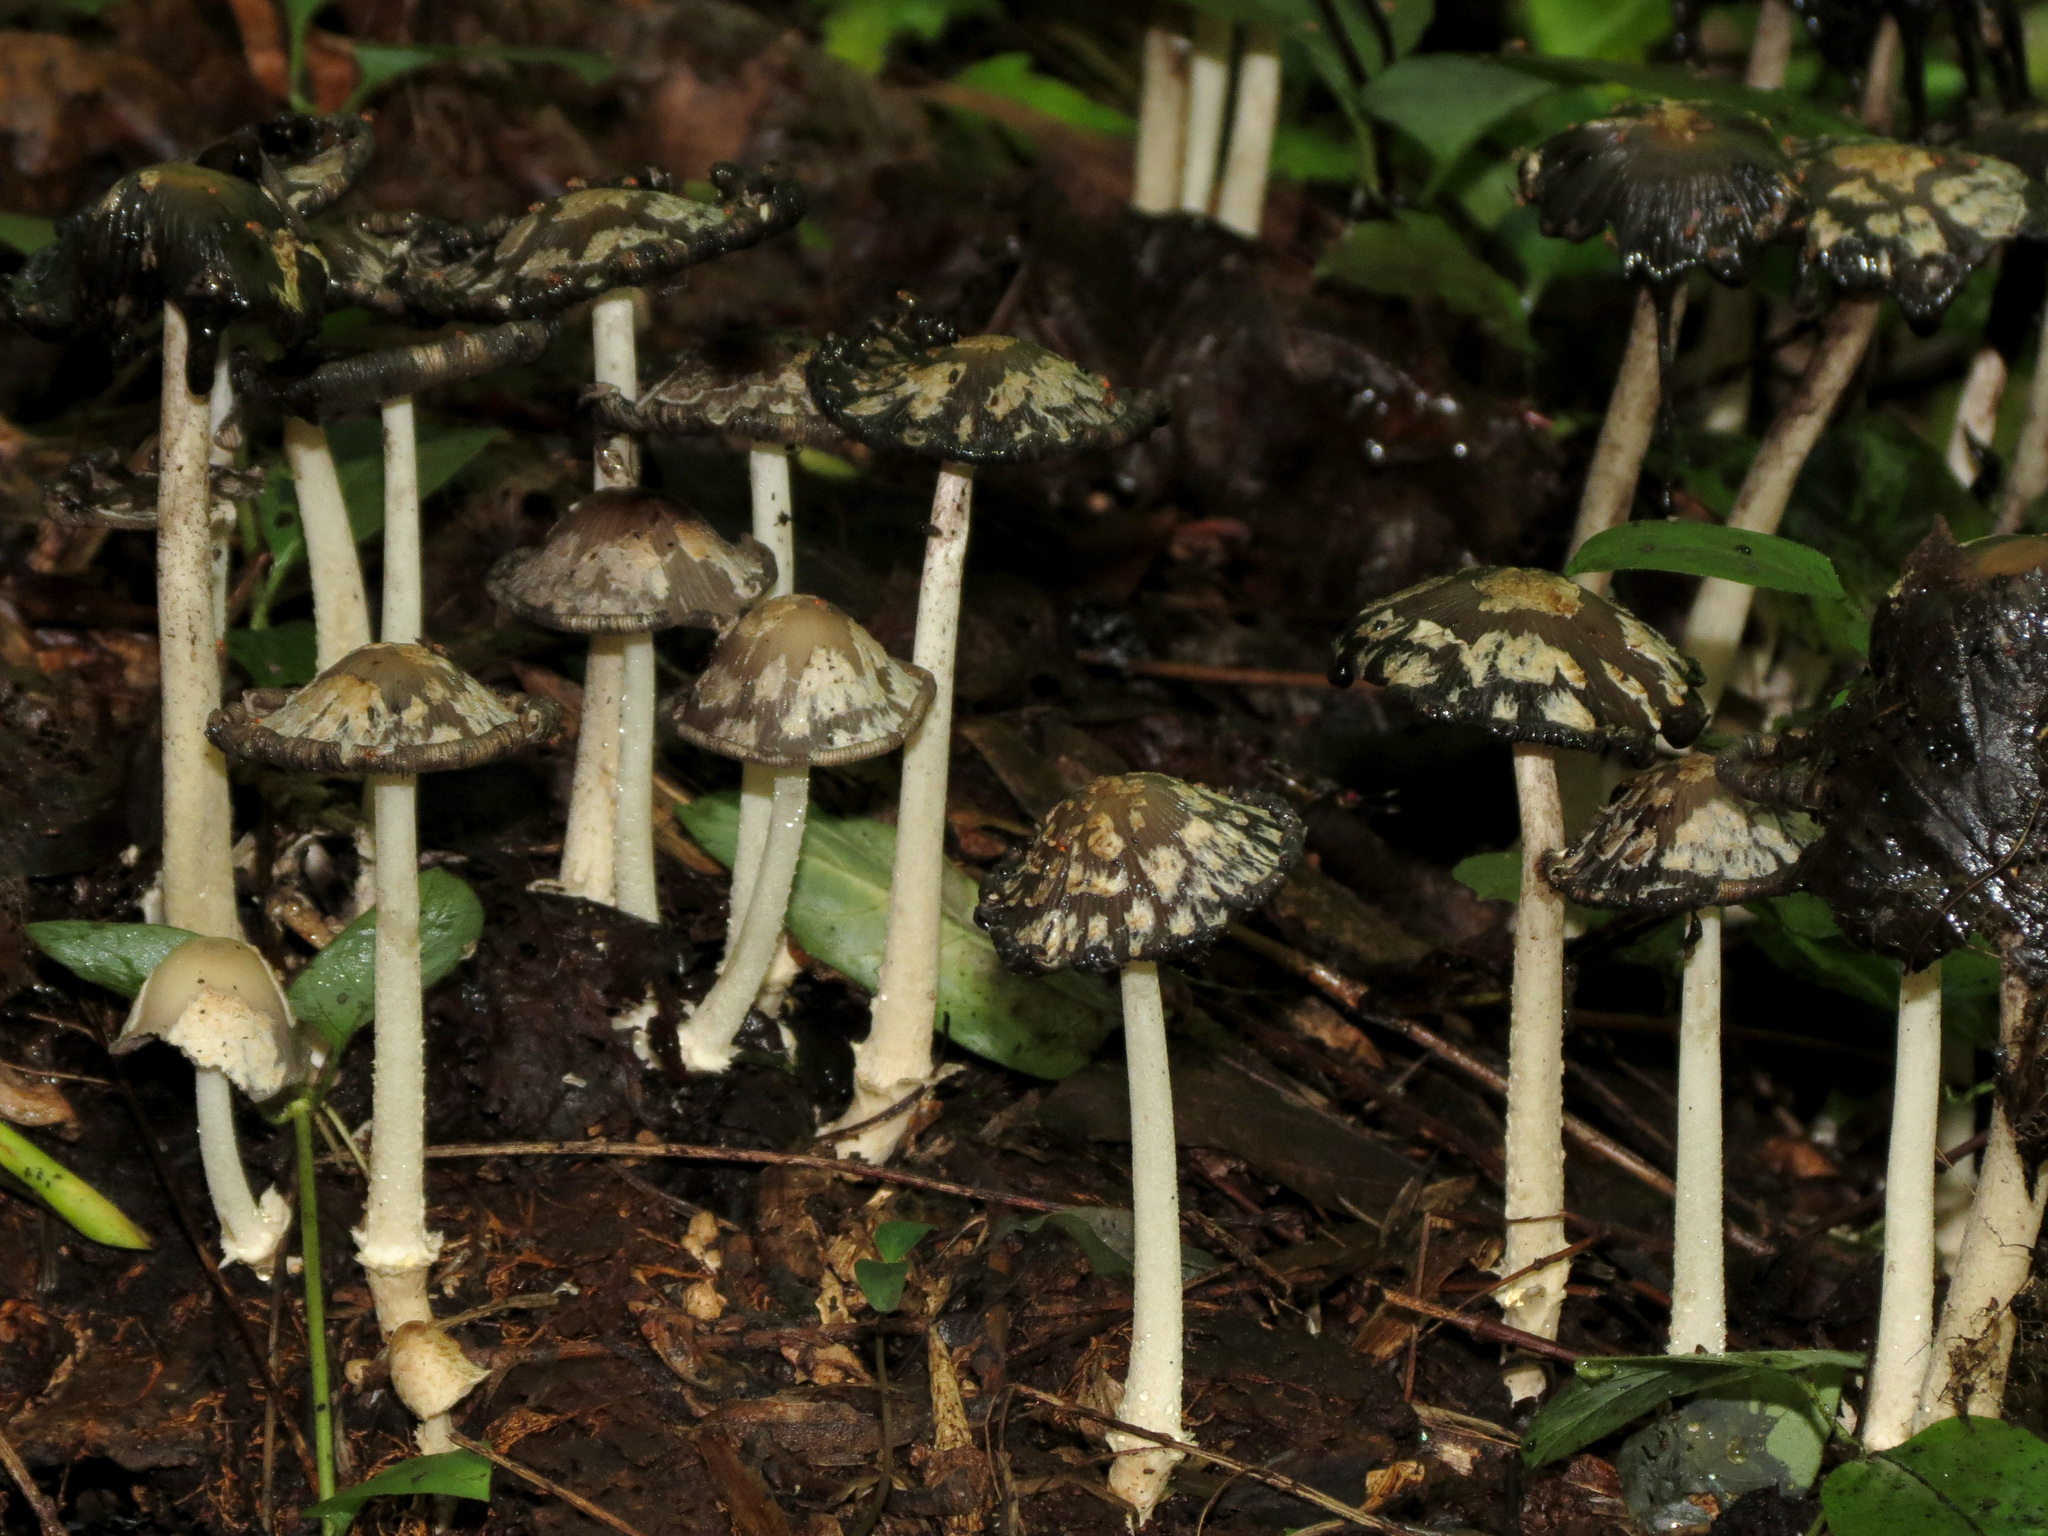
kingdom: Fungi
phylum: Basidiomycota
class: Agaricomycetes
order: Agaricales
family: Psathyrellaceae
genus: Coprinopsis
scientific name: Coprinopsis variegata
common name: Scaly ink cap
